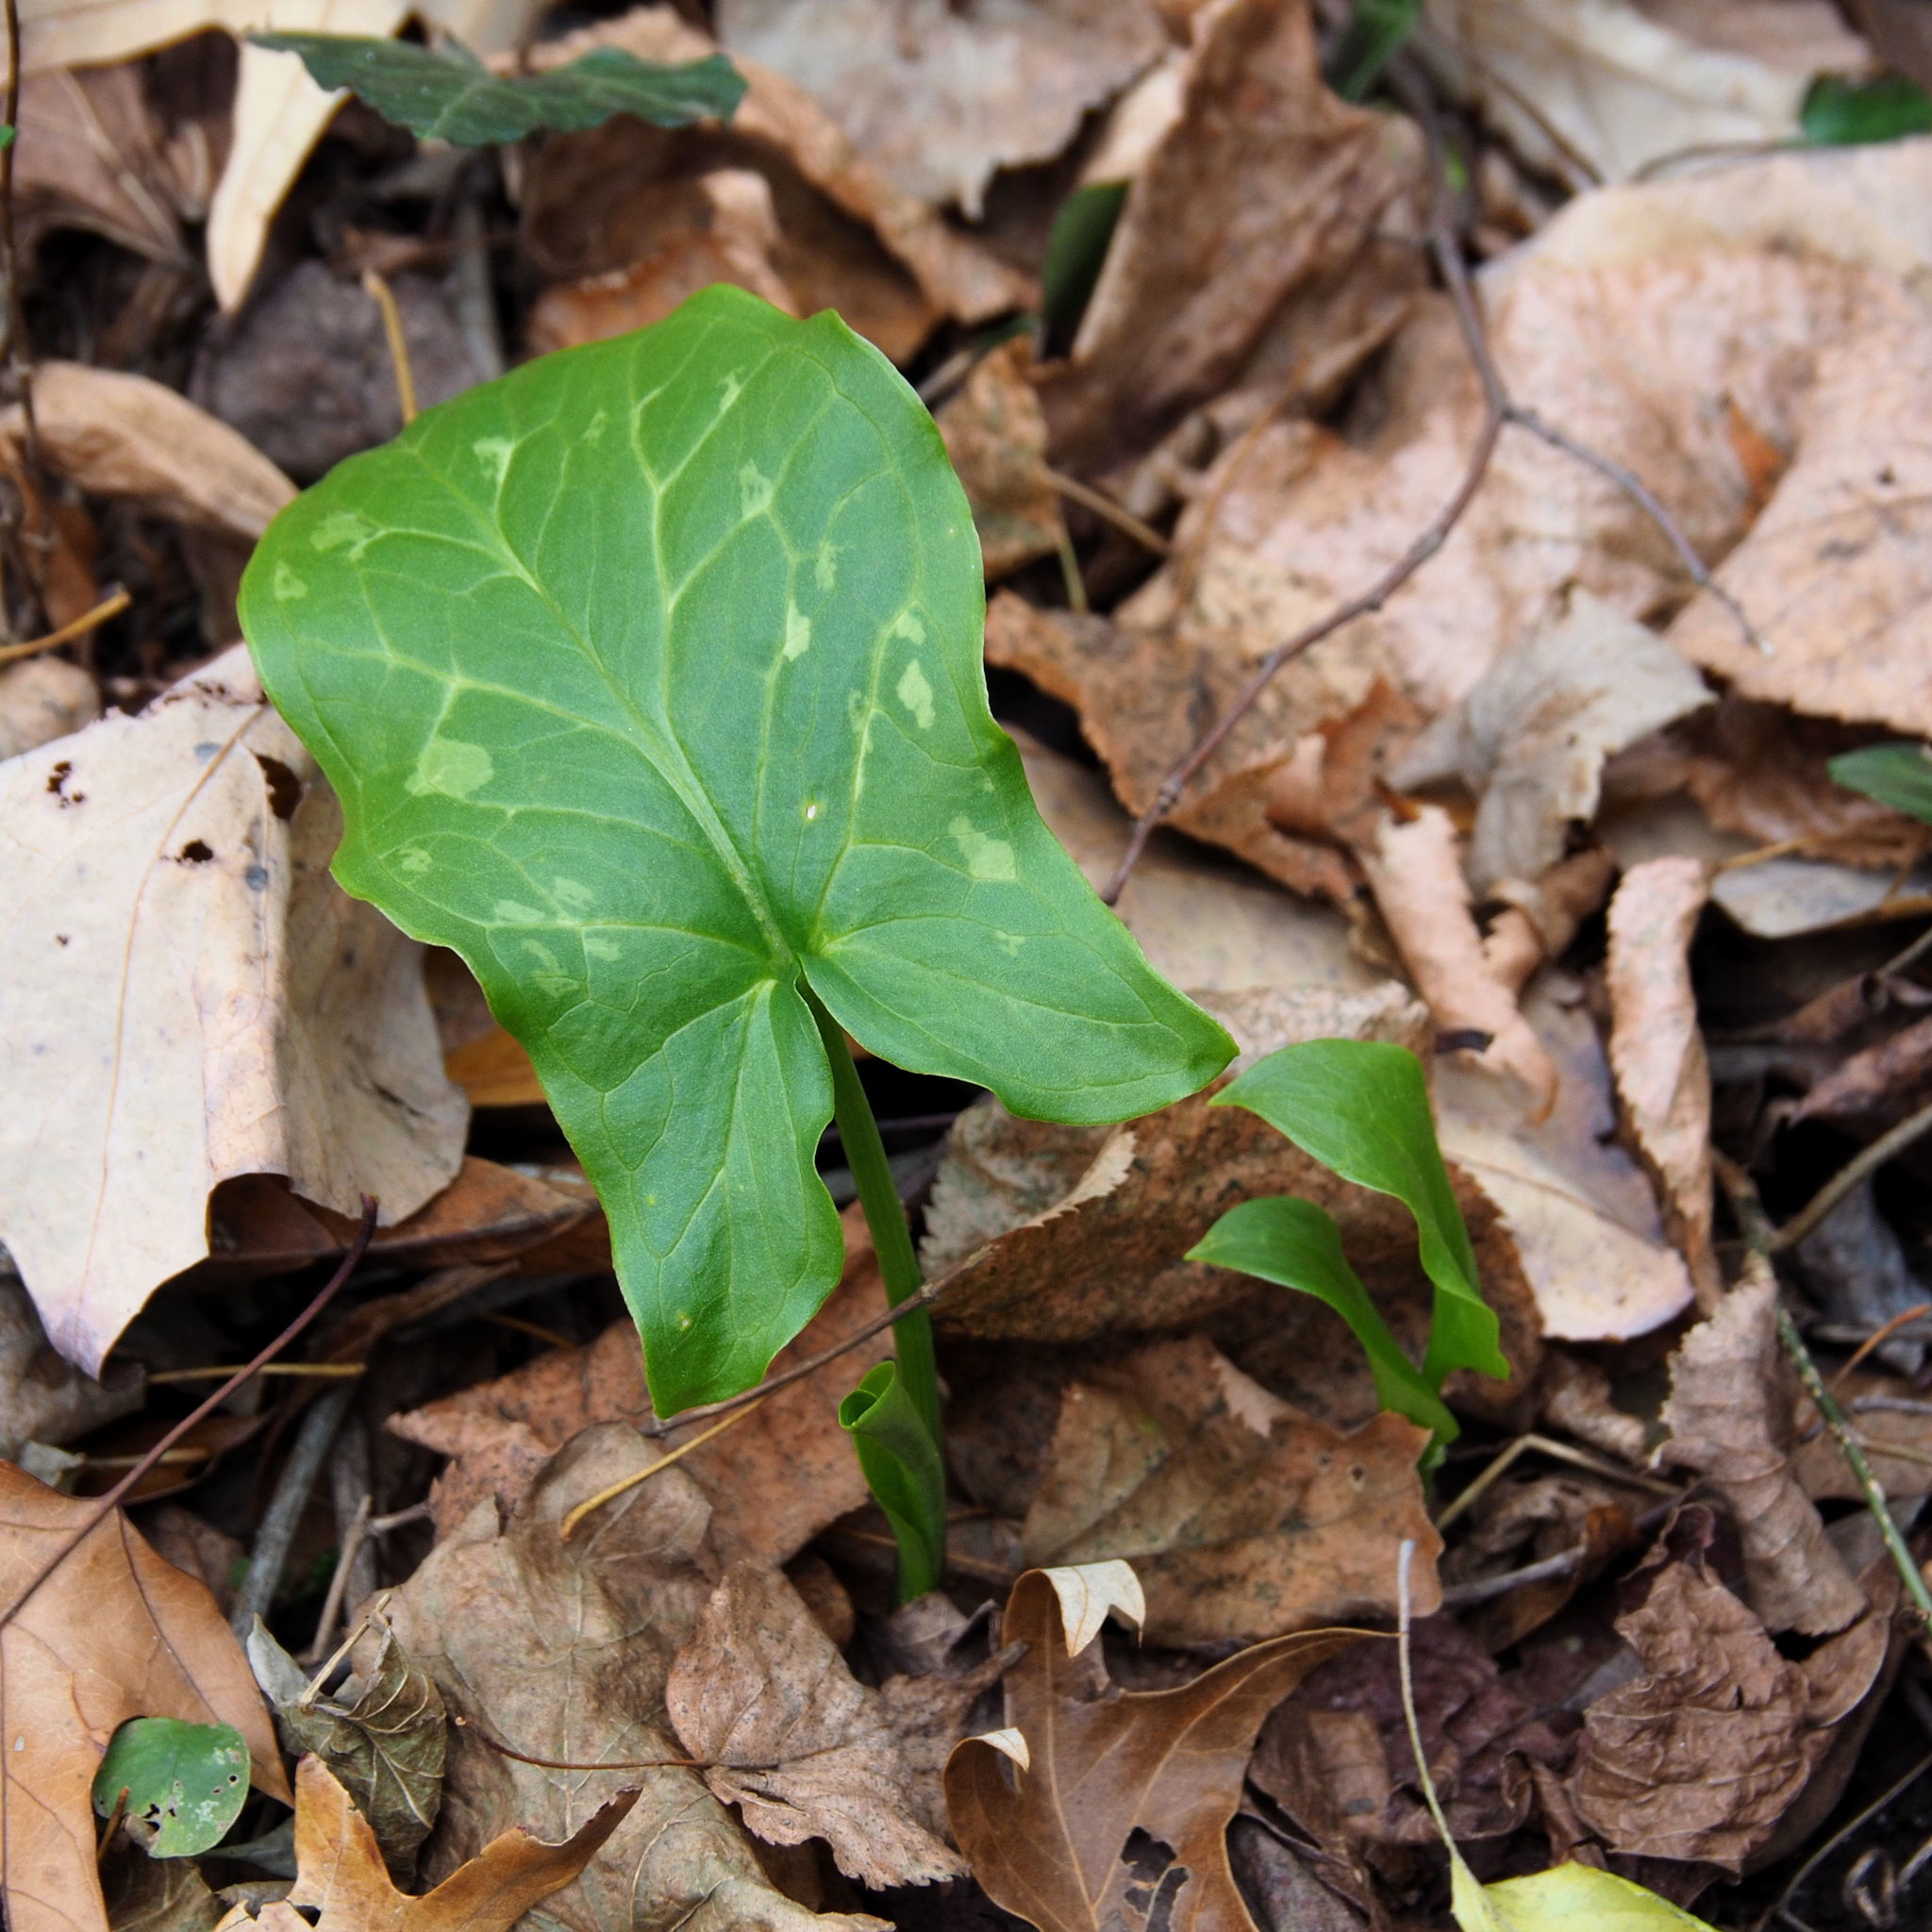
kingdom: Plantae
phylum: Tracheophyta
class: Liliopsida
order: Alismatales
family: Araceae
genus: Arum
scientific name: Arum italicum
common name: Italian lords-and-ladies
